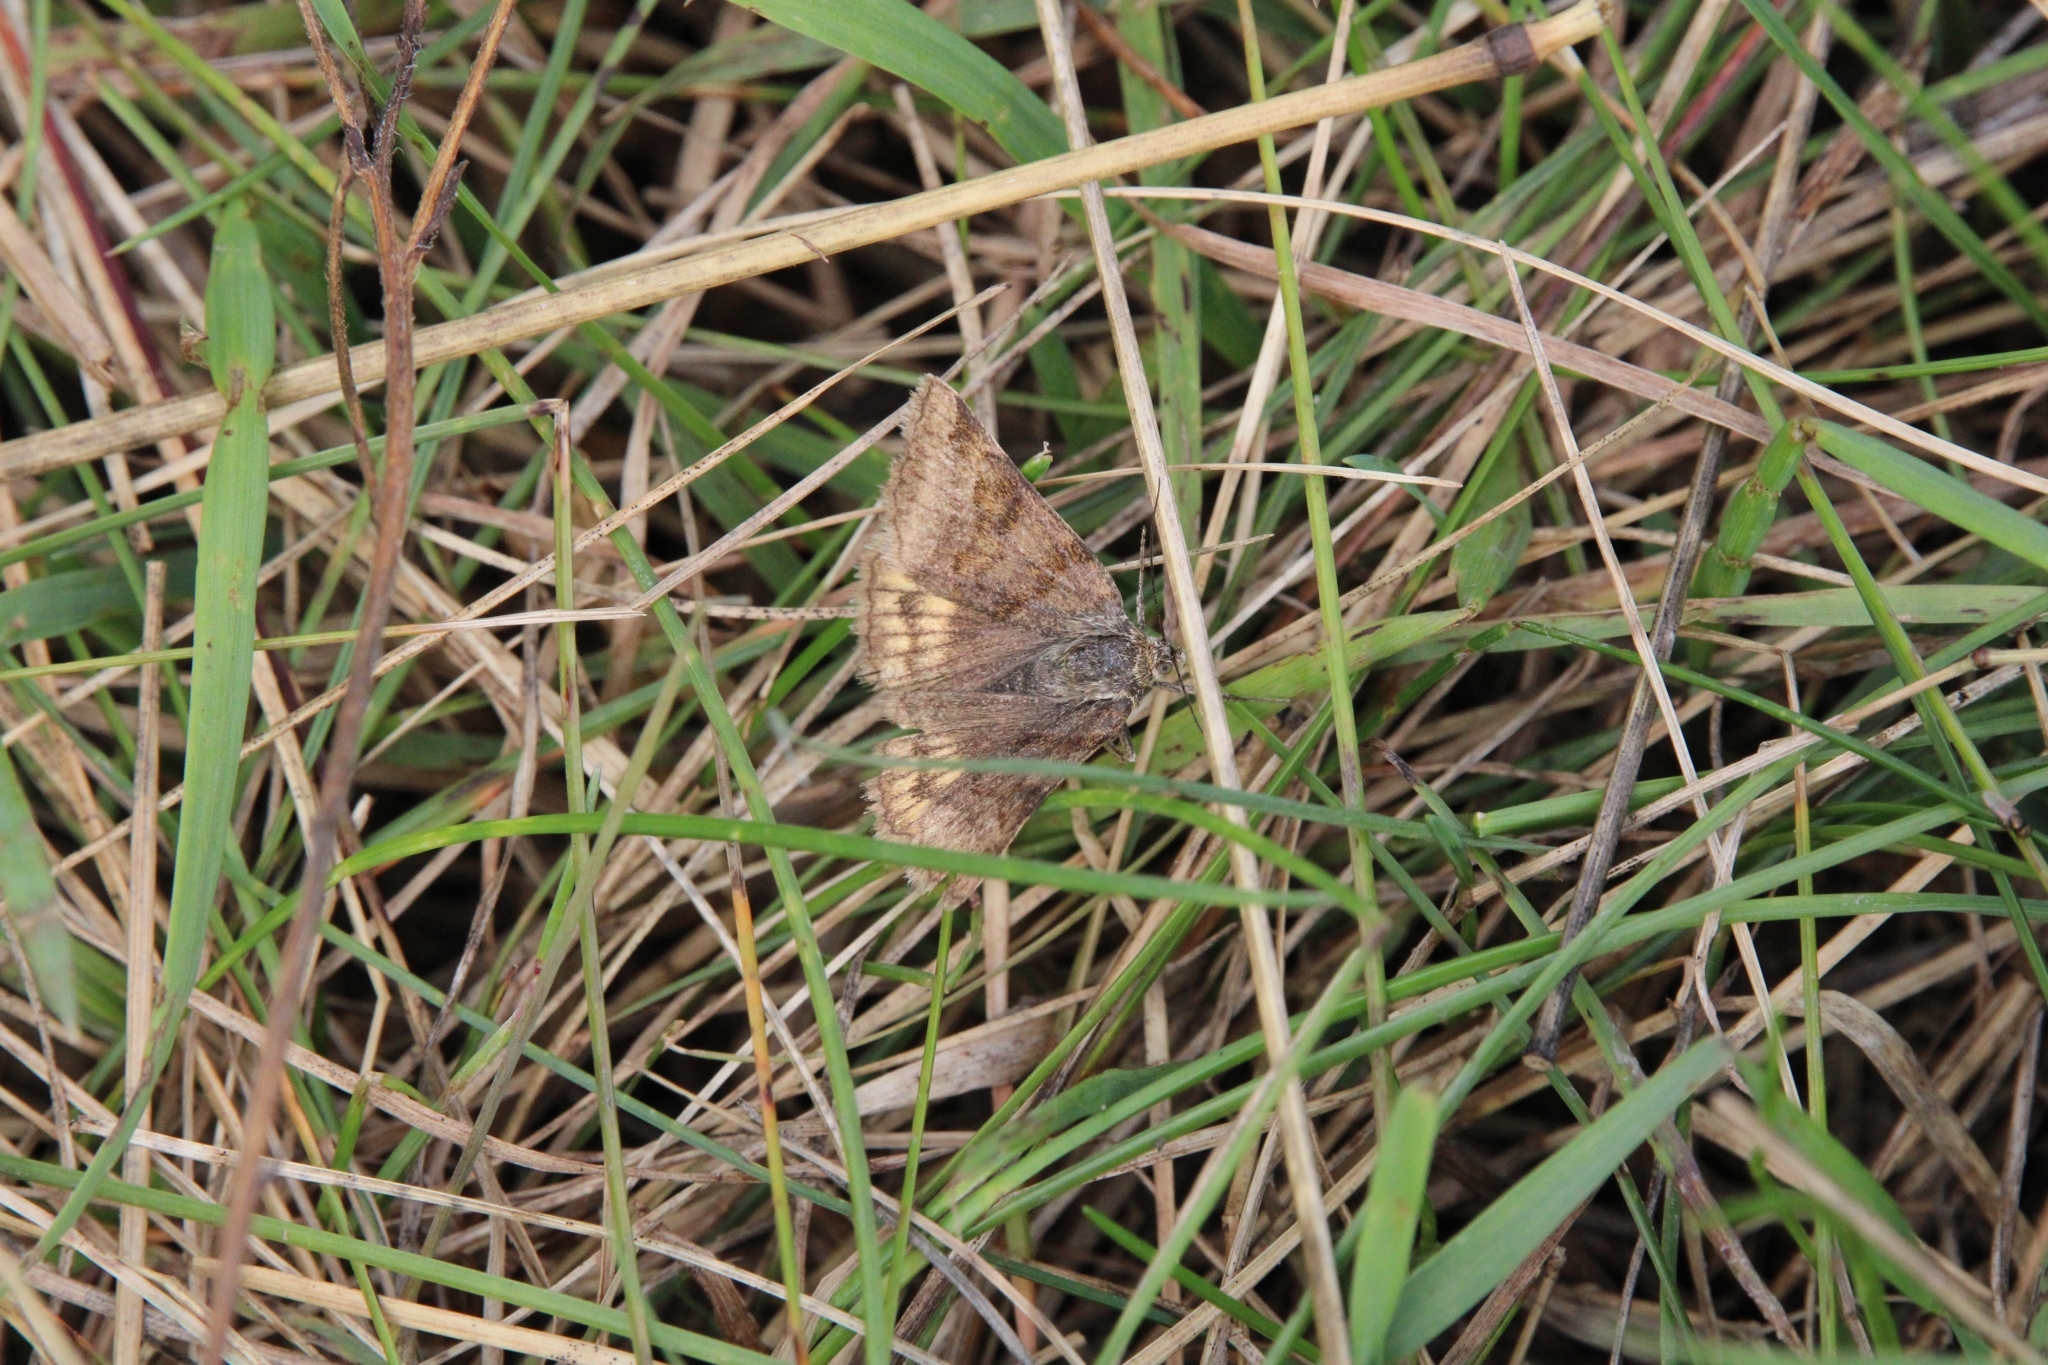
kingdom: Animalia
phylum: Arthropoda
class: Insecta
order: Lepidoptera
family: Erebidae
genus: Euclidia
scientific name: Euclidia glyphica
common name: Burnet companion
